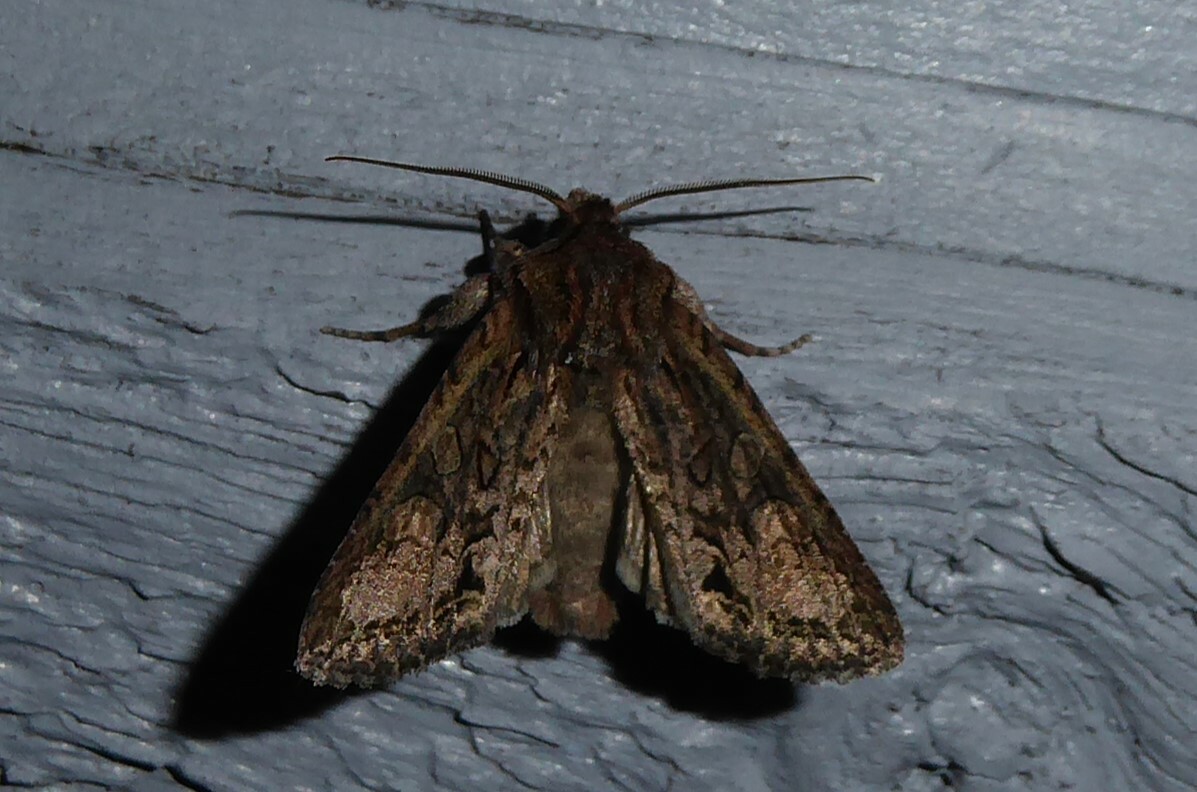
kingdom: Animalia
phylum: Arthropoda
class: Insecta
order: Lepidoptera
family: Noctuidae
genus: Ichneutica
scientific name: Ichneutica mutans
